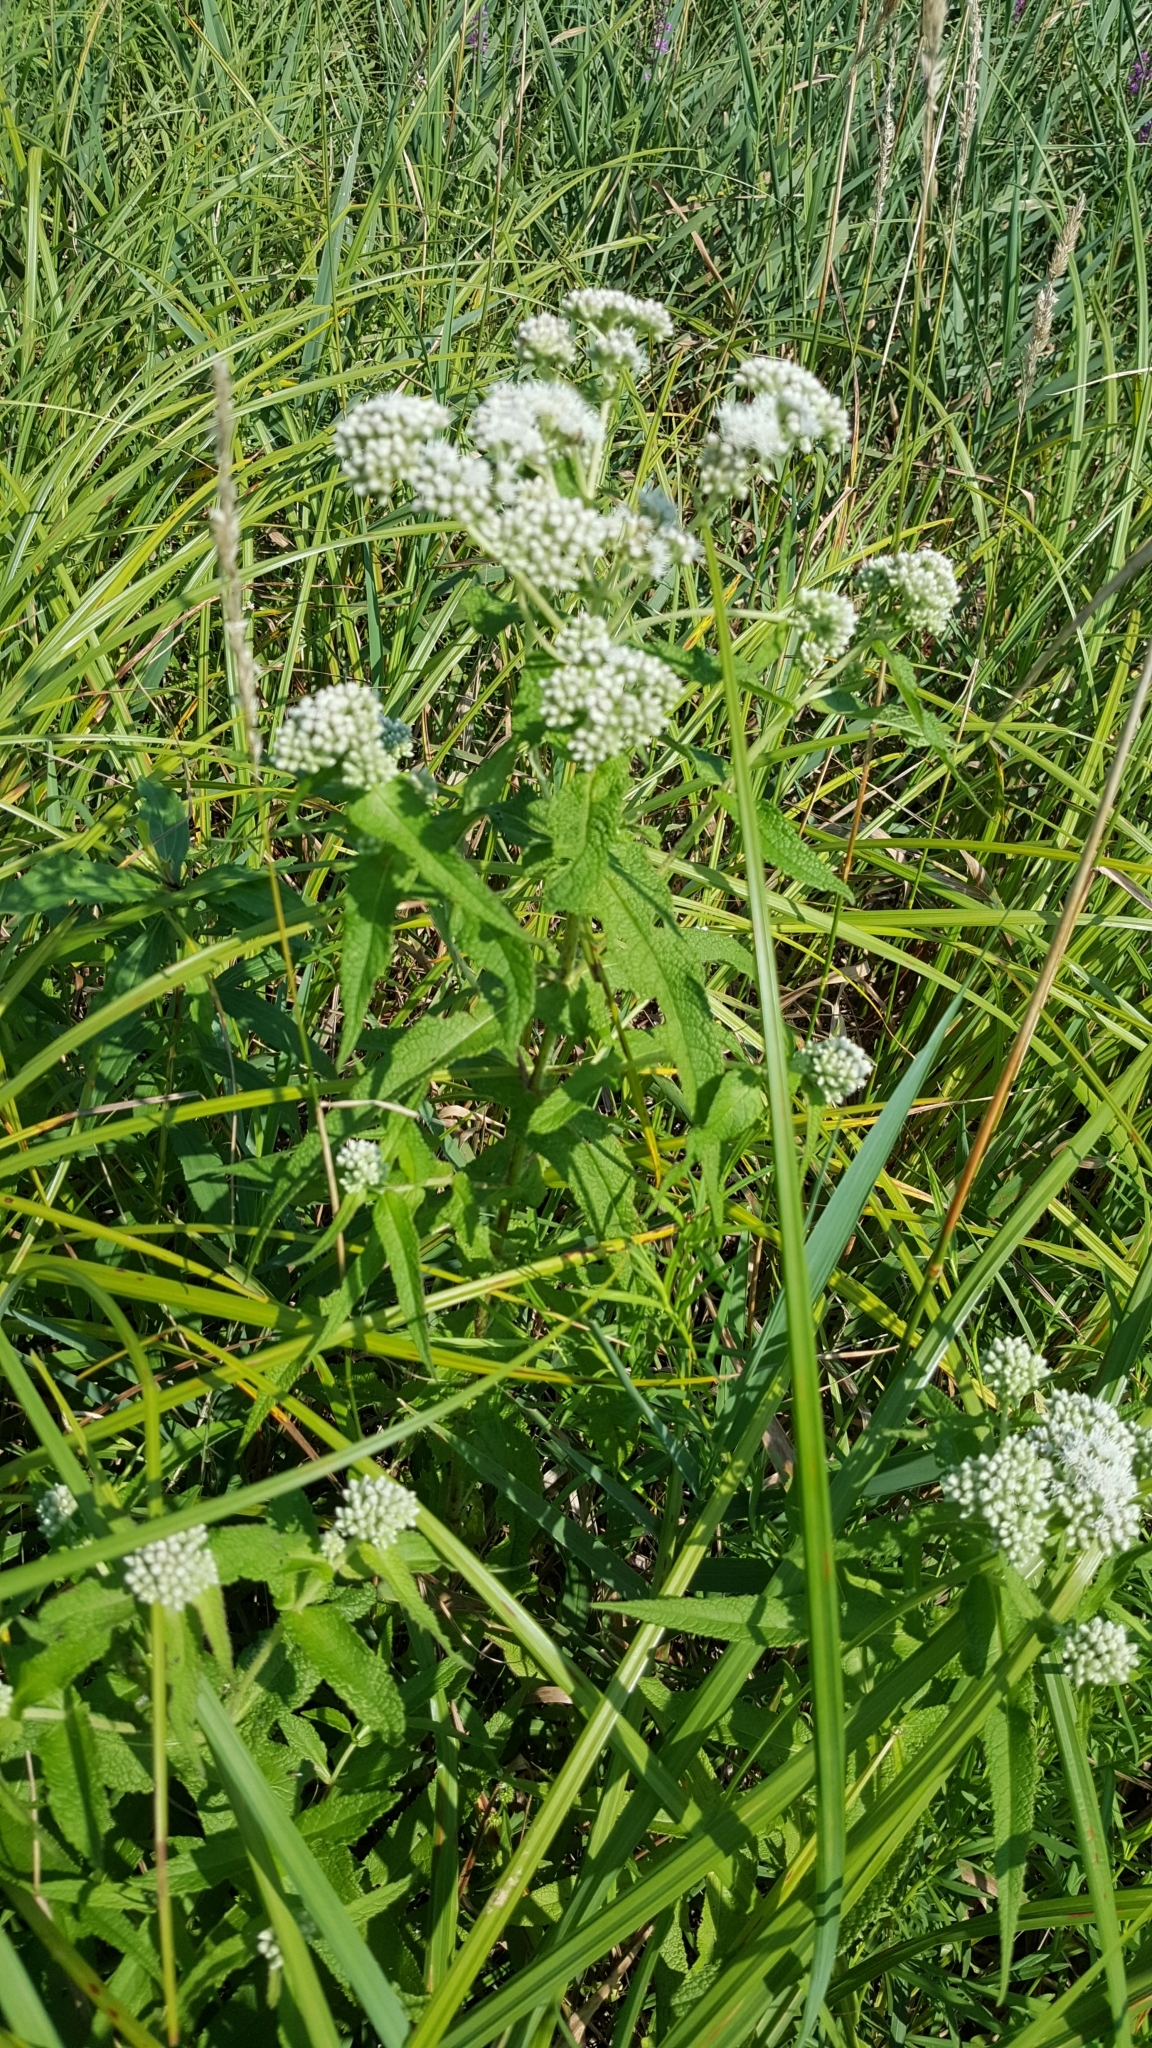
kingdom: Plantae
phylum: Tracheophyta
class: Magnoliopsida
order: Asterales
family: Asteraceae
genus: Eupatorium
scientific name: Eupatorium perfoliatum
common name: Boneset
